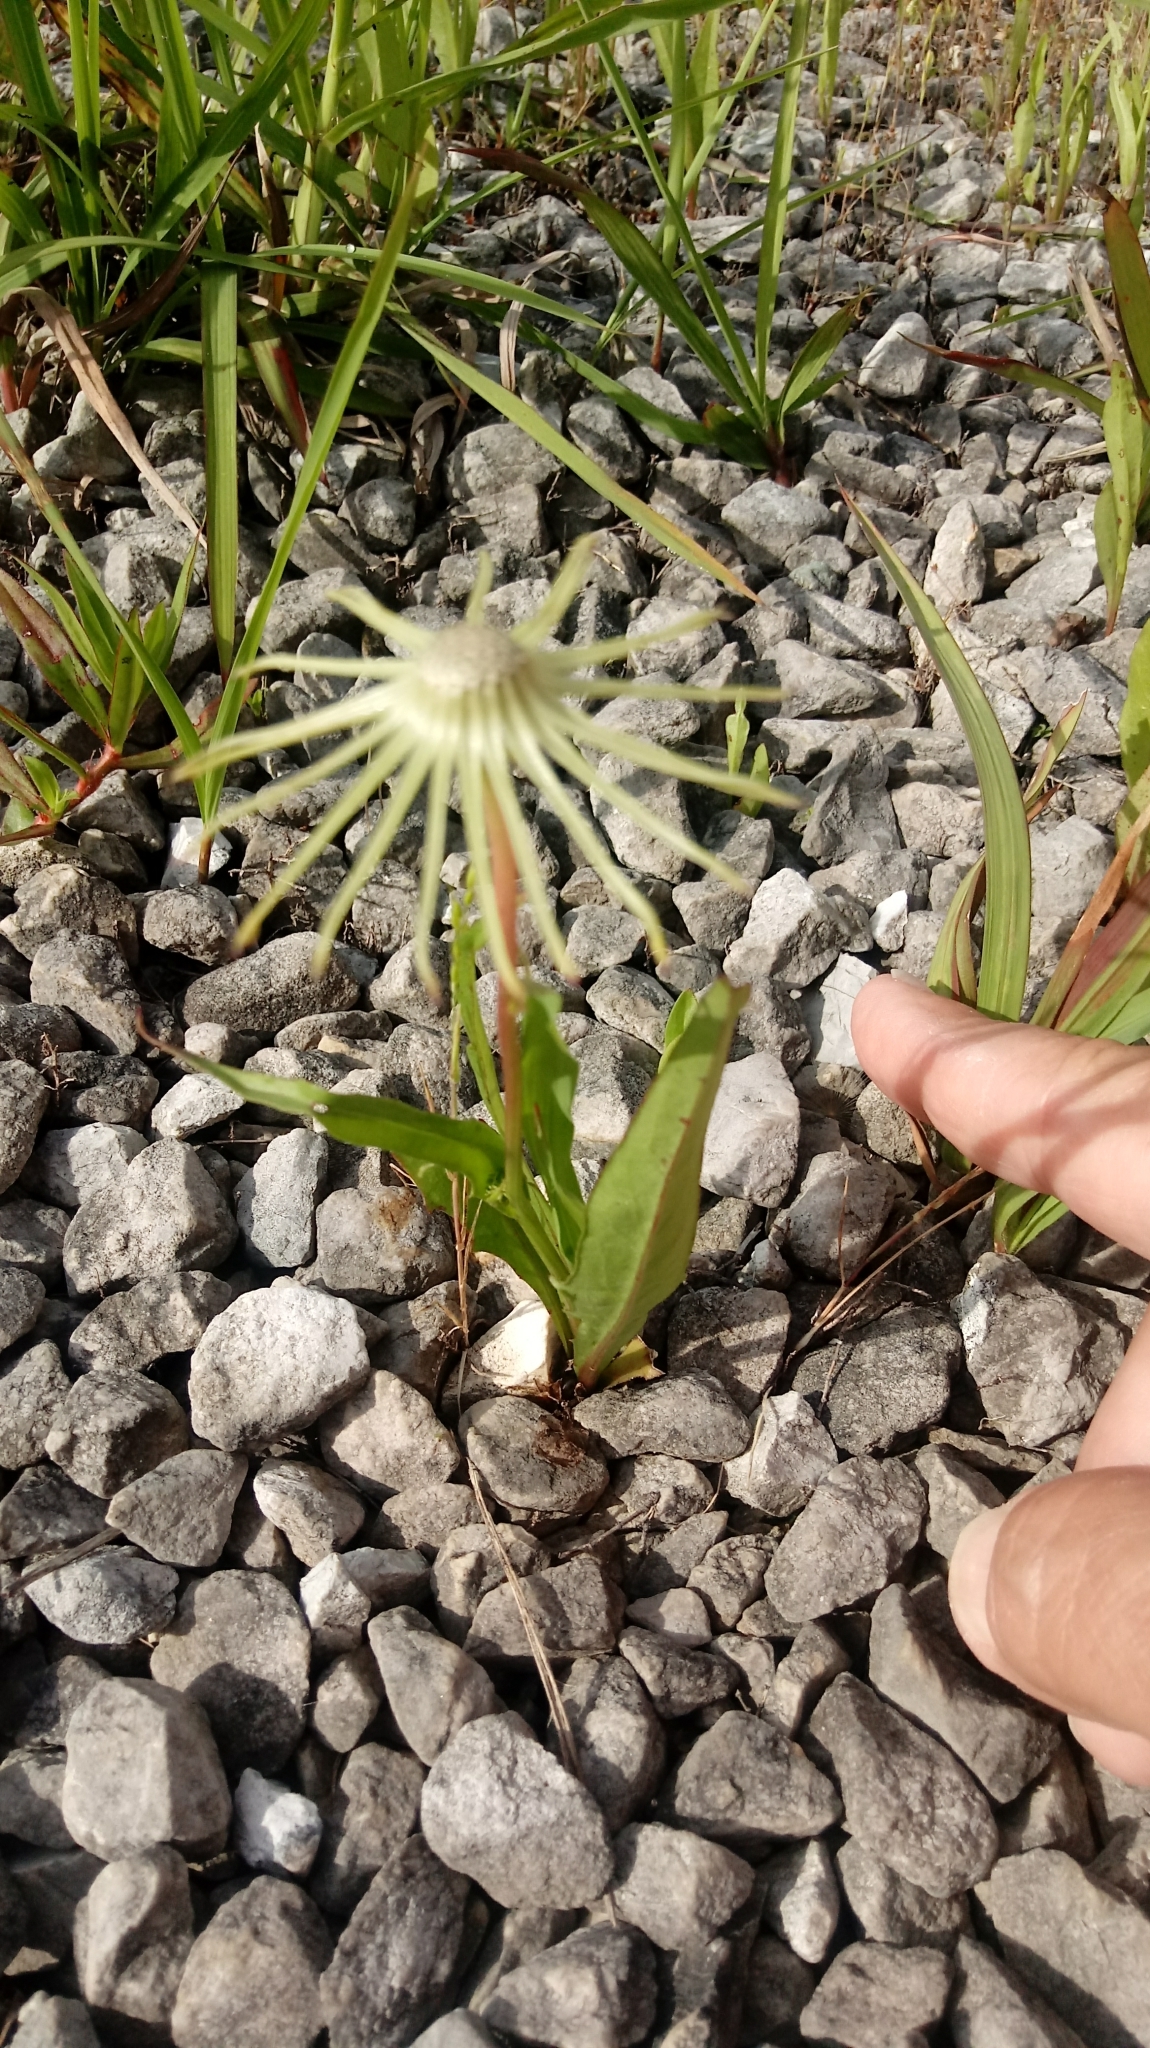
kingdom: Plantae
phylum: Tracheophyta
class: Magnoliopsida
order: Asterales
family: Asteraceae
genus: Pyrrhopappus
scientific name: Pyrrhopappus carolinianus
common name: Carolina desert-chicory
